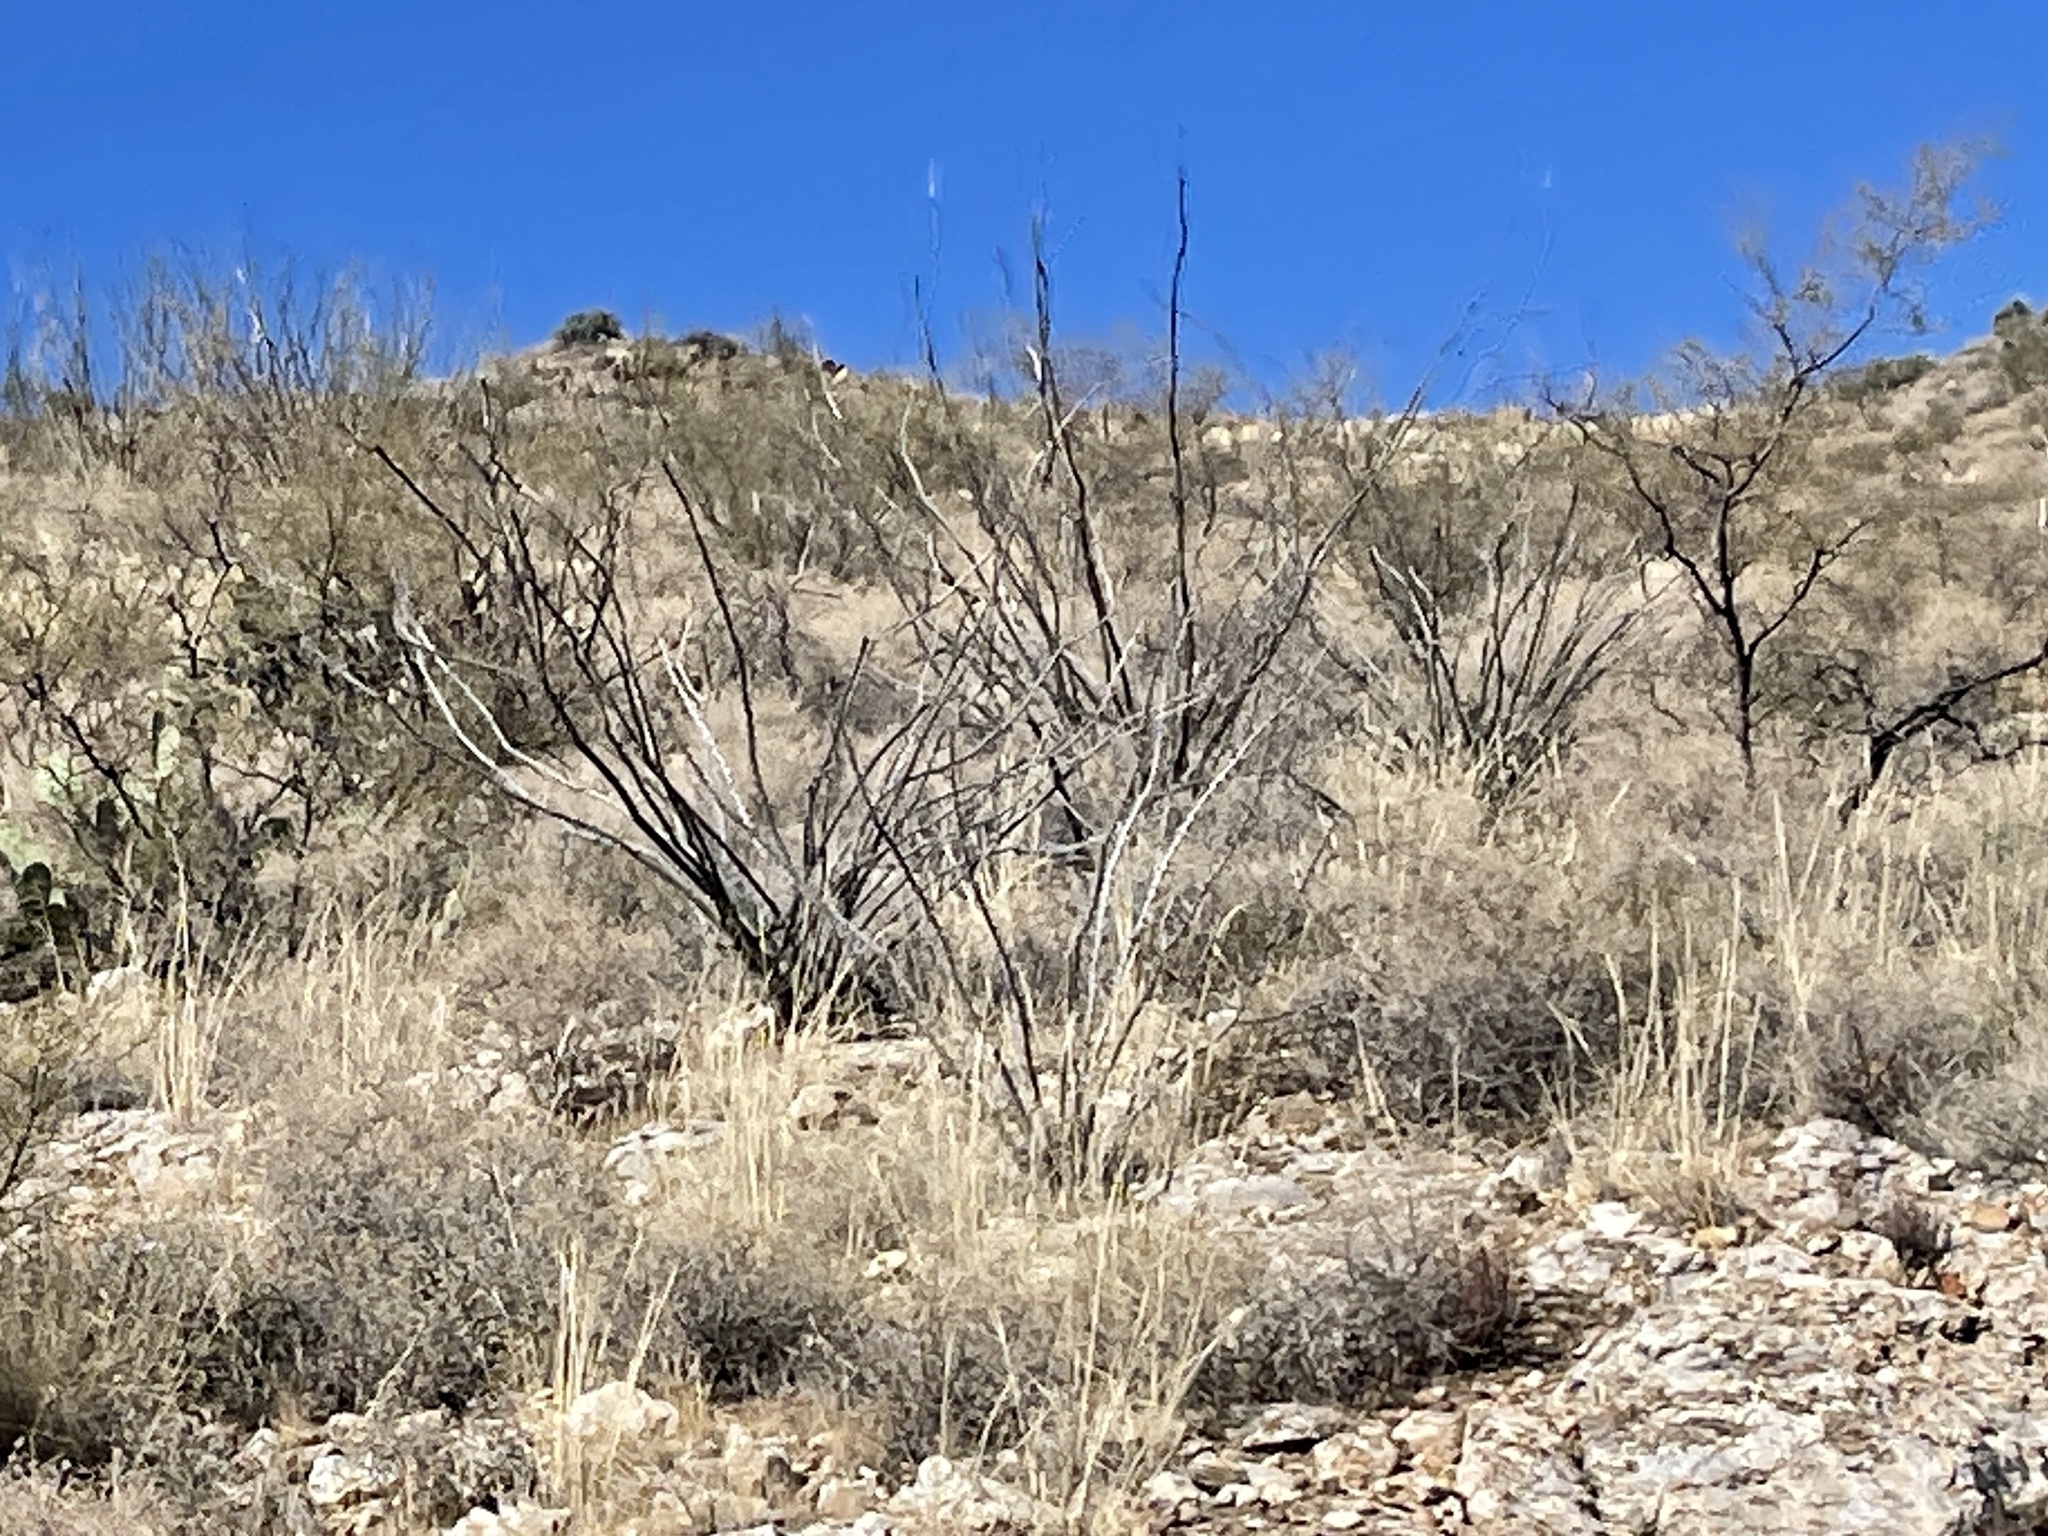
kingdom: Plantae
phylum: Tracheophyta
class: Magnoliopsida
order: Ericales
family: Fouquieriaceae
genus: Fouquieria
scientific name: Fouquieria splendens
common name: Vine-cactus
